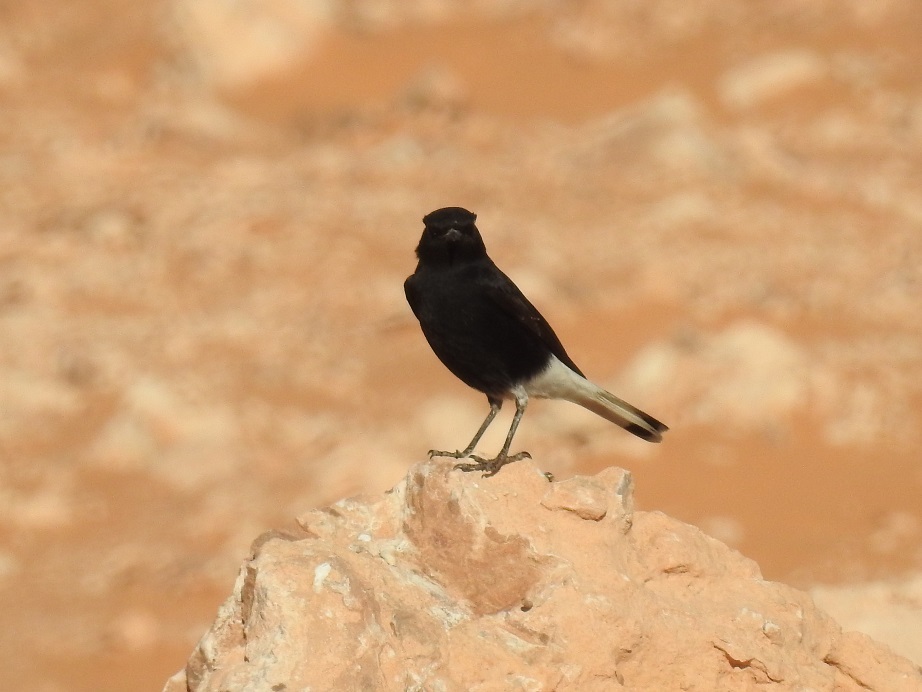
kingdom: Animalia
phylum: Chordata
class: Aves
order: Passeriformes
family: Muscicapidae
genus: Oenanthe
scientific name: Oenanthe leucopyga
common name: White-crowned wheatear
